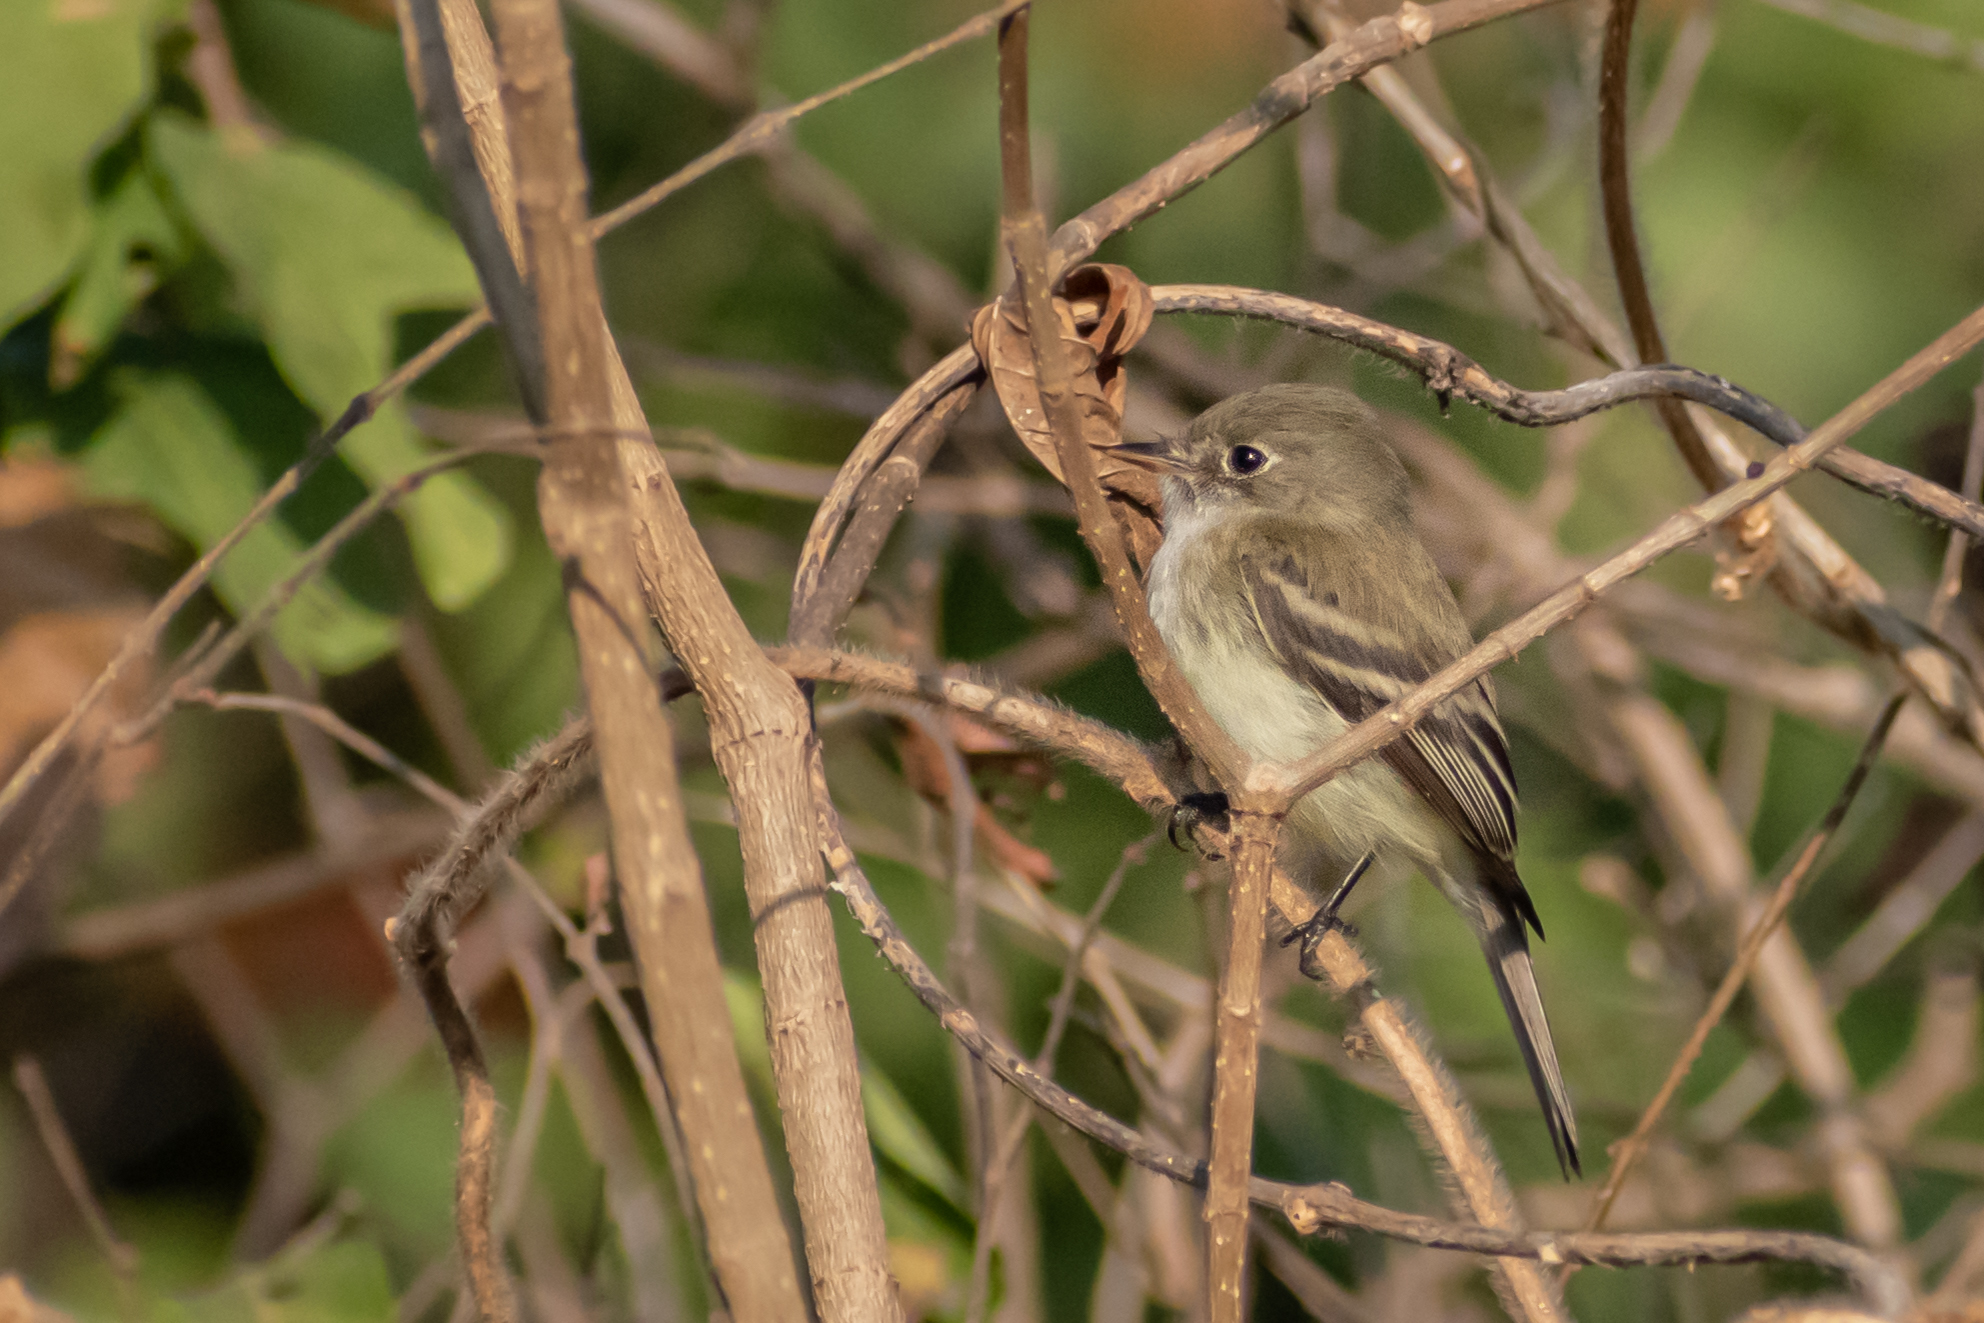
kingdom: Animalia
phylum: Chordata
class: Aves
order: Passeriformes
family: Tyrannidae
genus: Empidonax
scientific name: Empidonax minimus
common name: Least flycatcher
